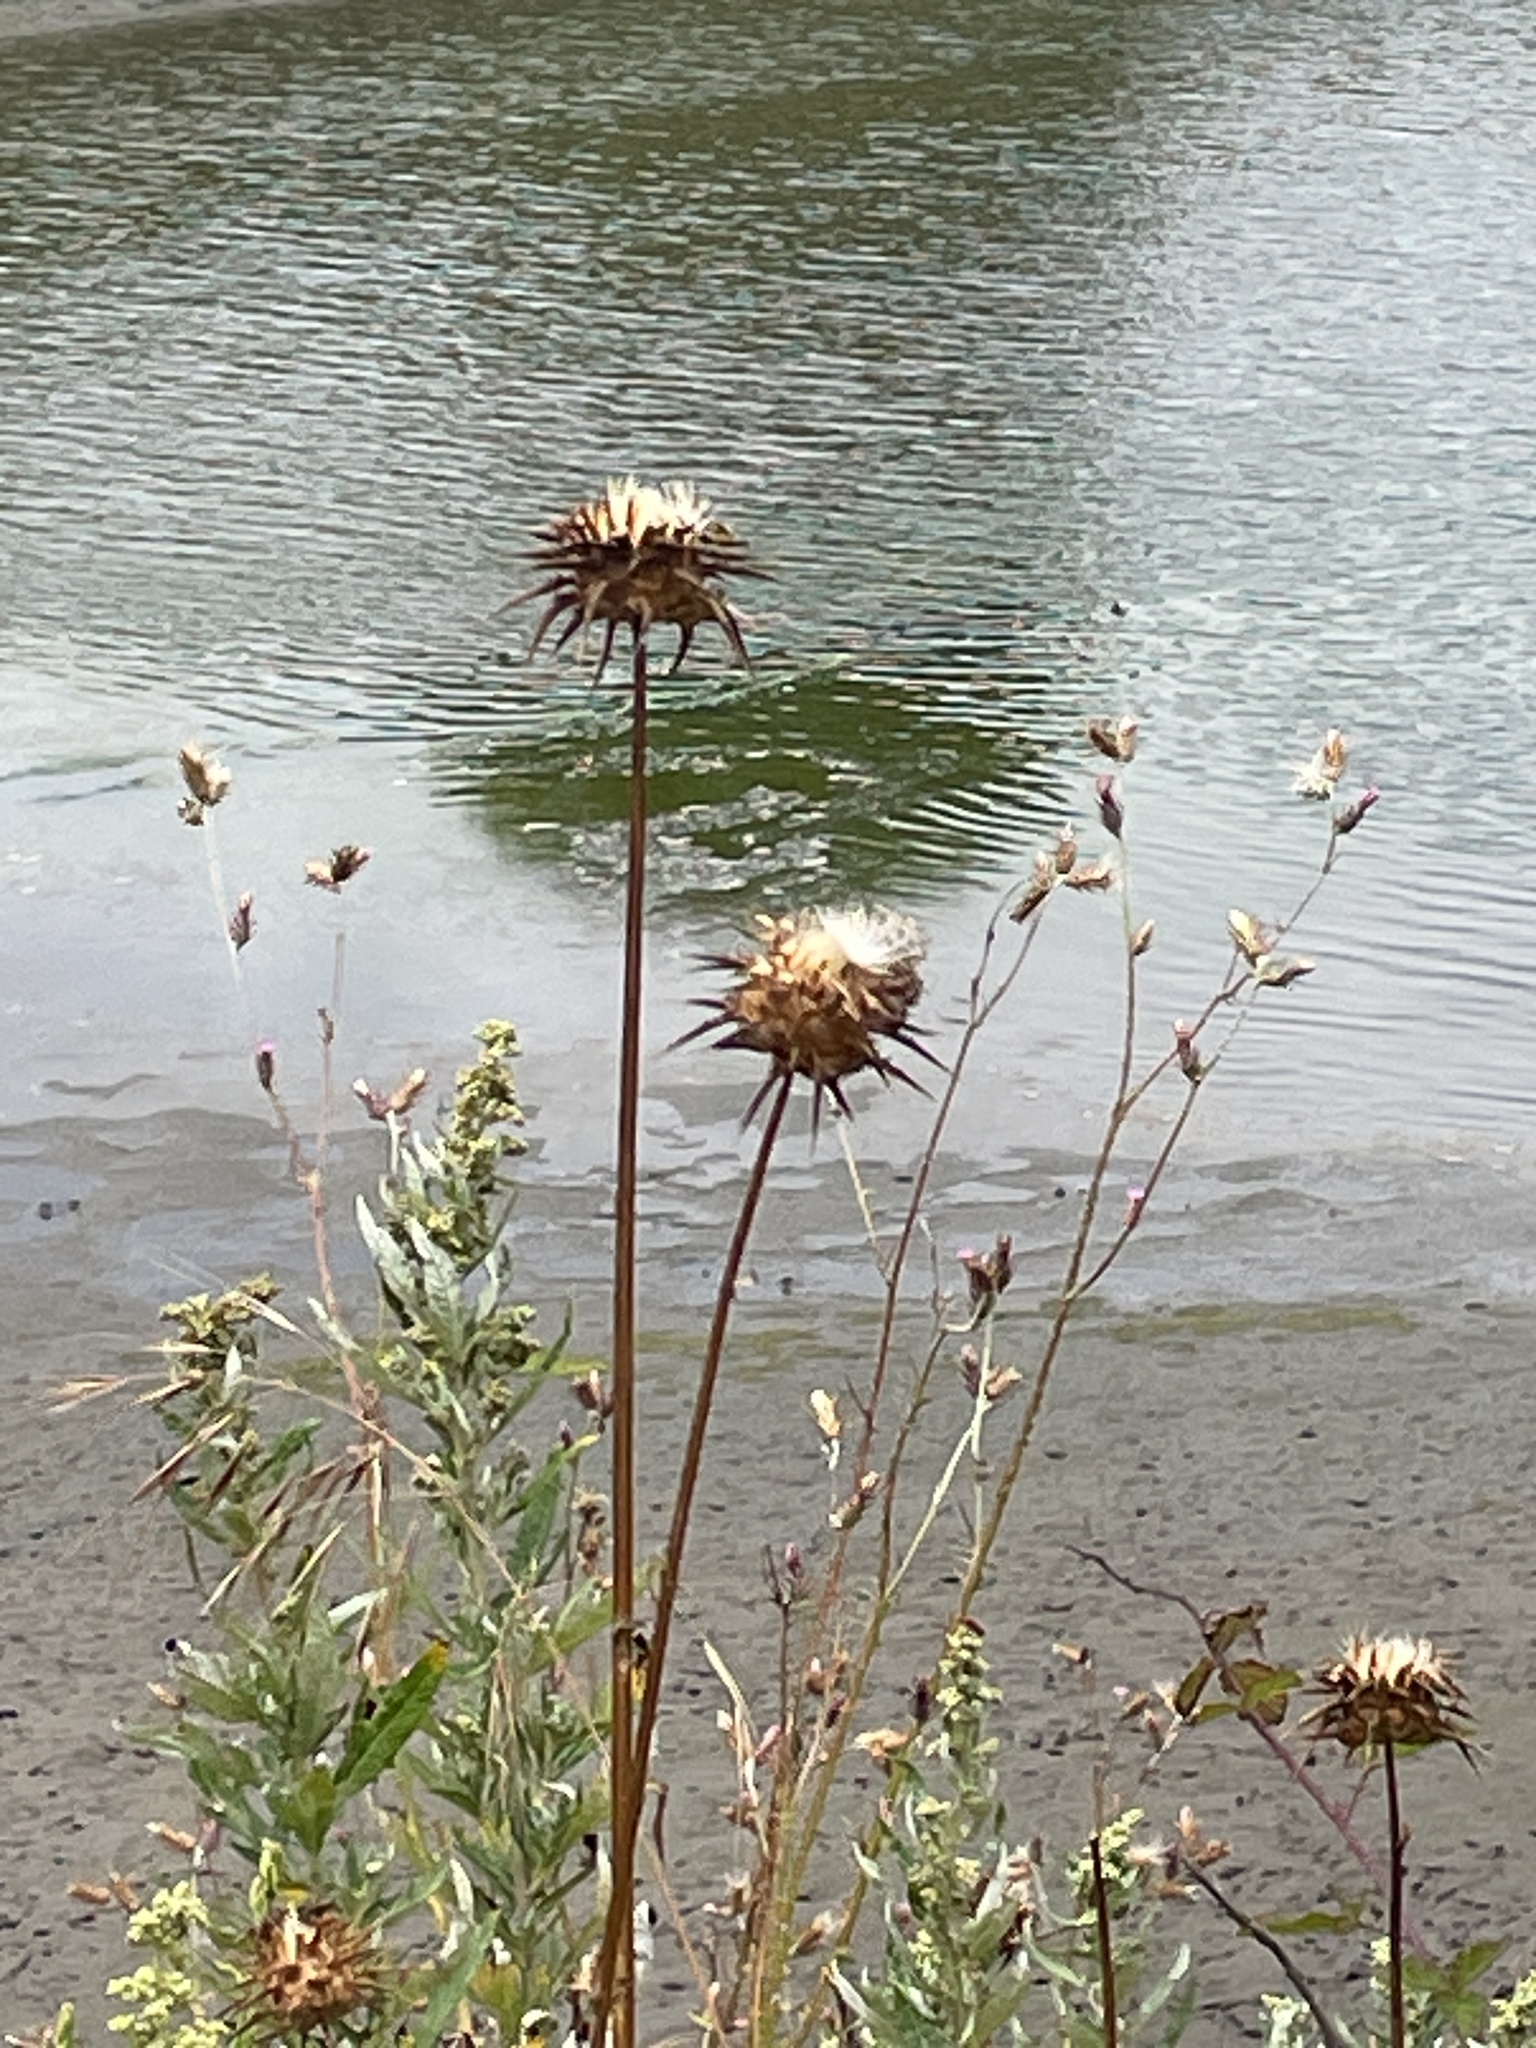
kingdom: Plantae
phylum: Tracheophyta
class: Magnoliopsida
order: Asterales
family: Asteraceae
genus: Silybum
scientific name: Silybum marianum
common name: Milk thistle
